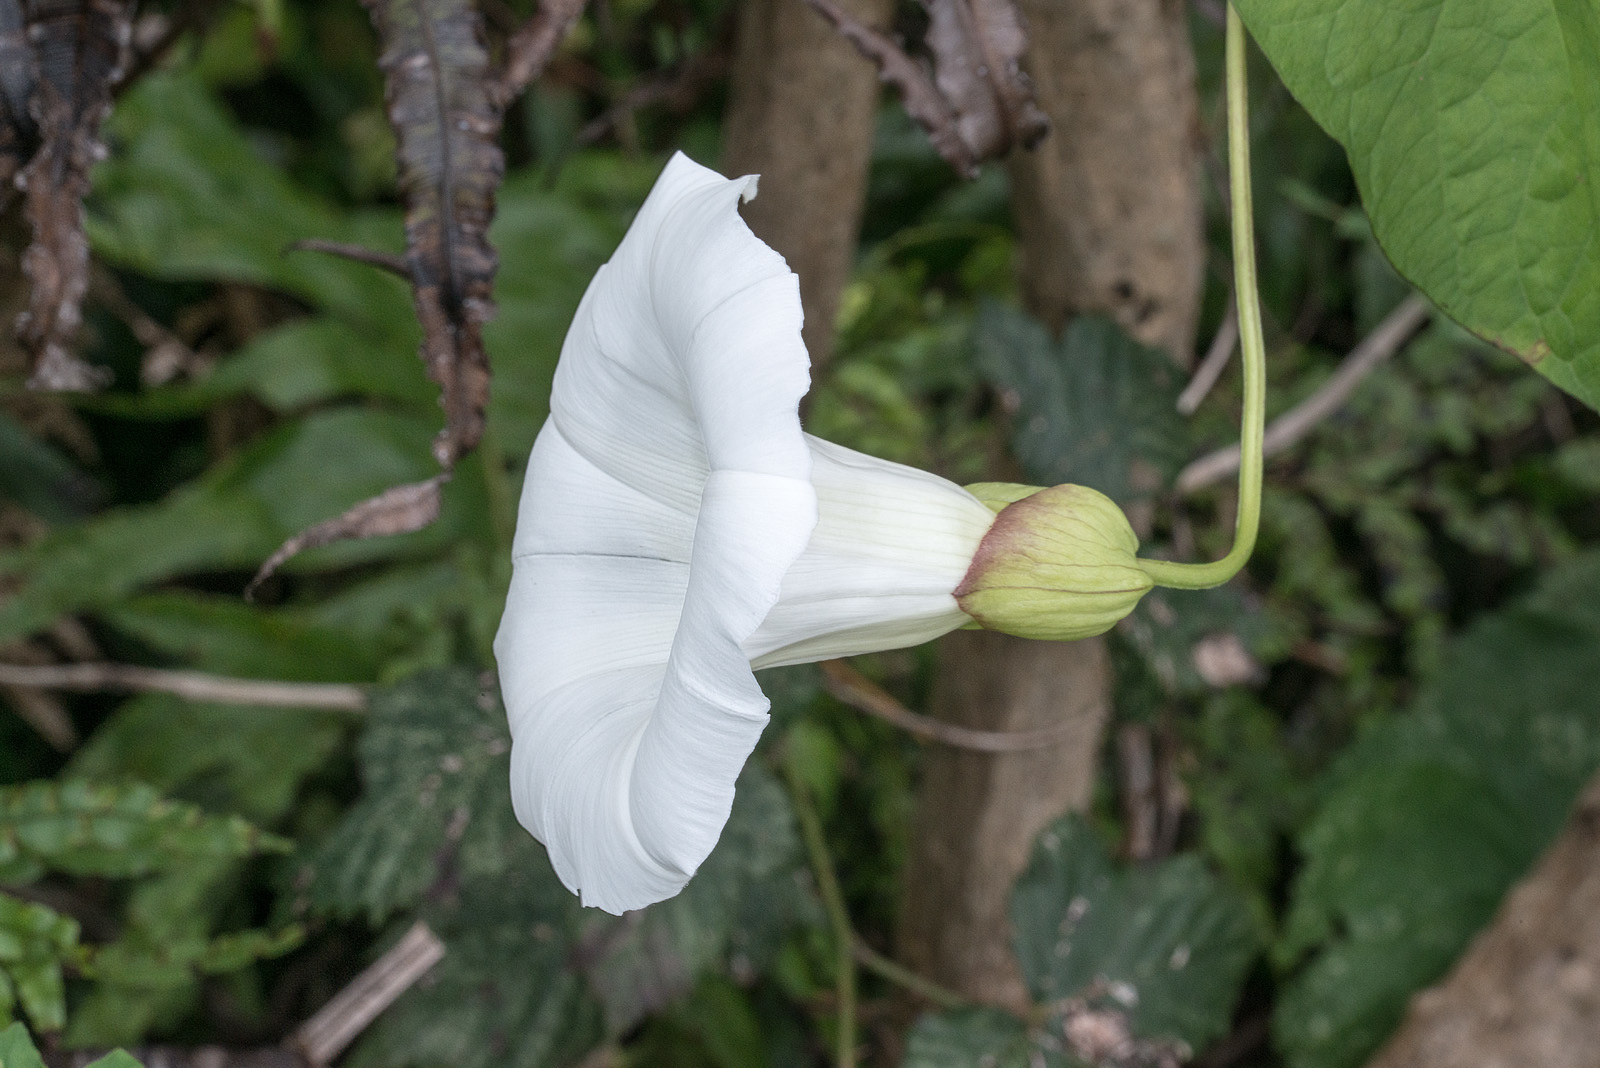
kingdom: Plantae
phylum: Tracheophyta
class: Magnoliopsida
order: Solanales
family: Convolvulaceae
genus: Calystegia
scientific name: Calystegia silvatica
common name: Large bindweed
